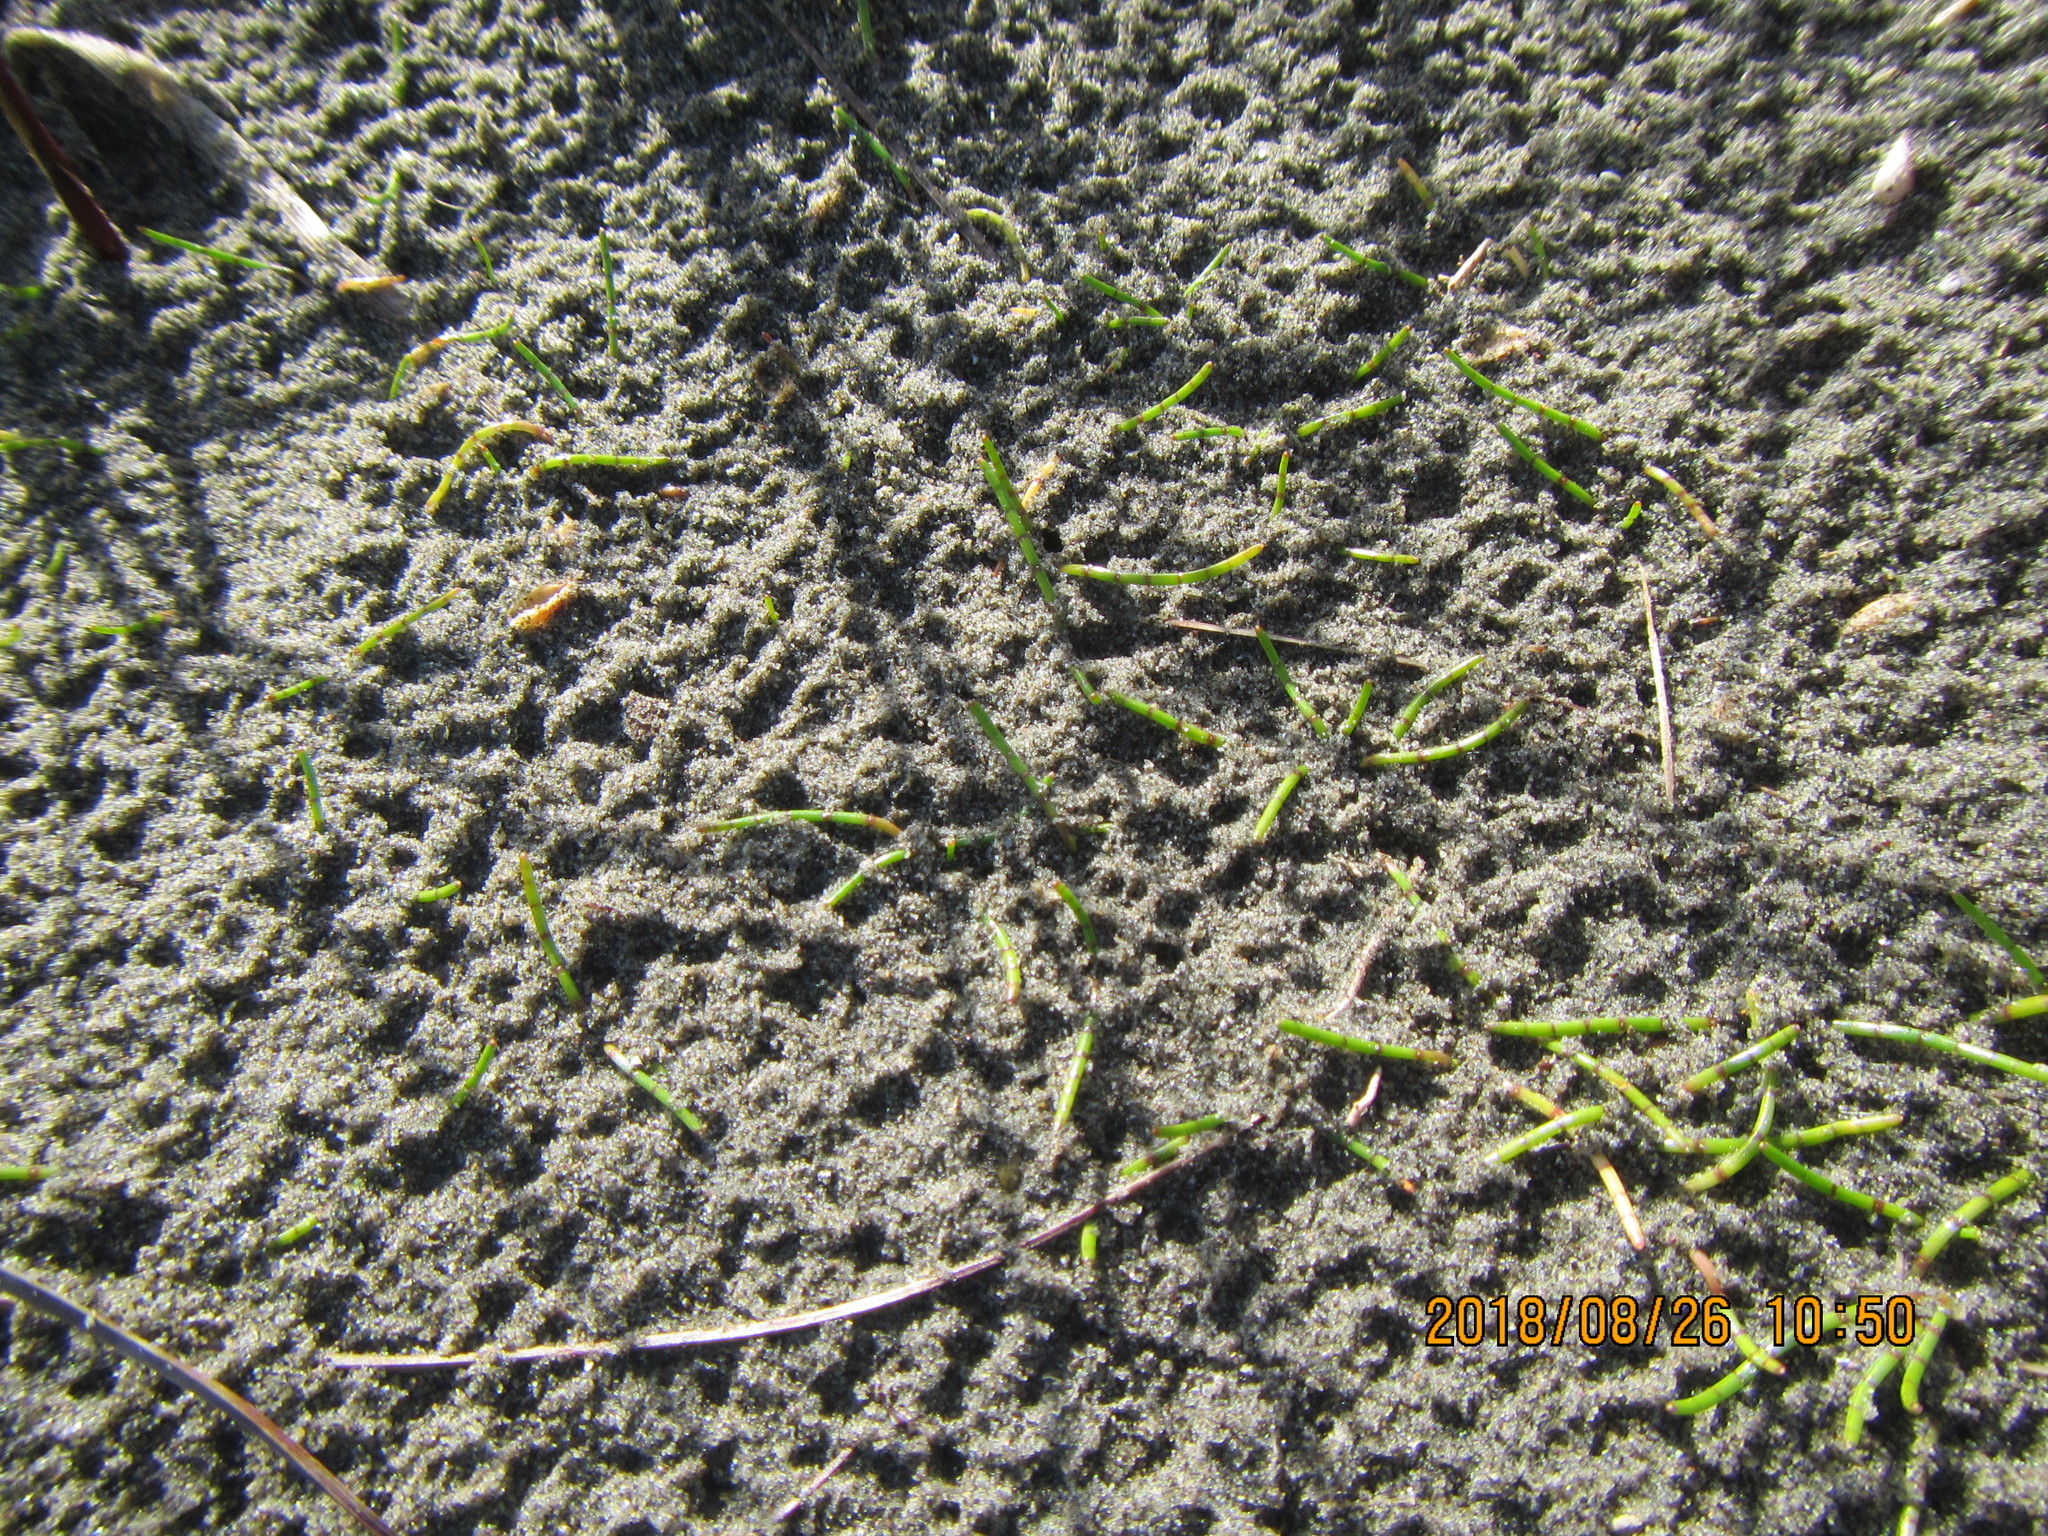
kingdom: Plantae
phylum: Tracheophyta
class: Magnoliopsida
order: Apiales
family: Apiaceae
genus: Lilaeopsis
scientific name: Lilaeopsis novae-zelandiae
